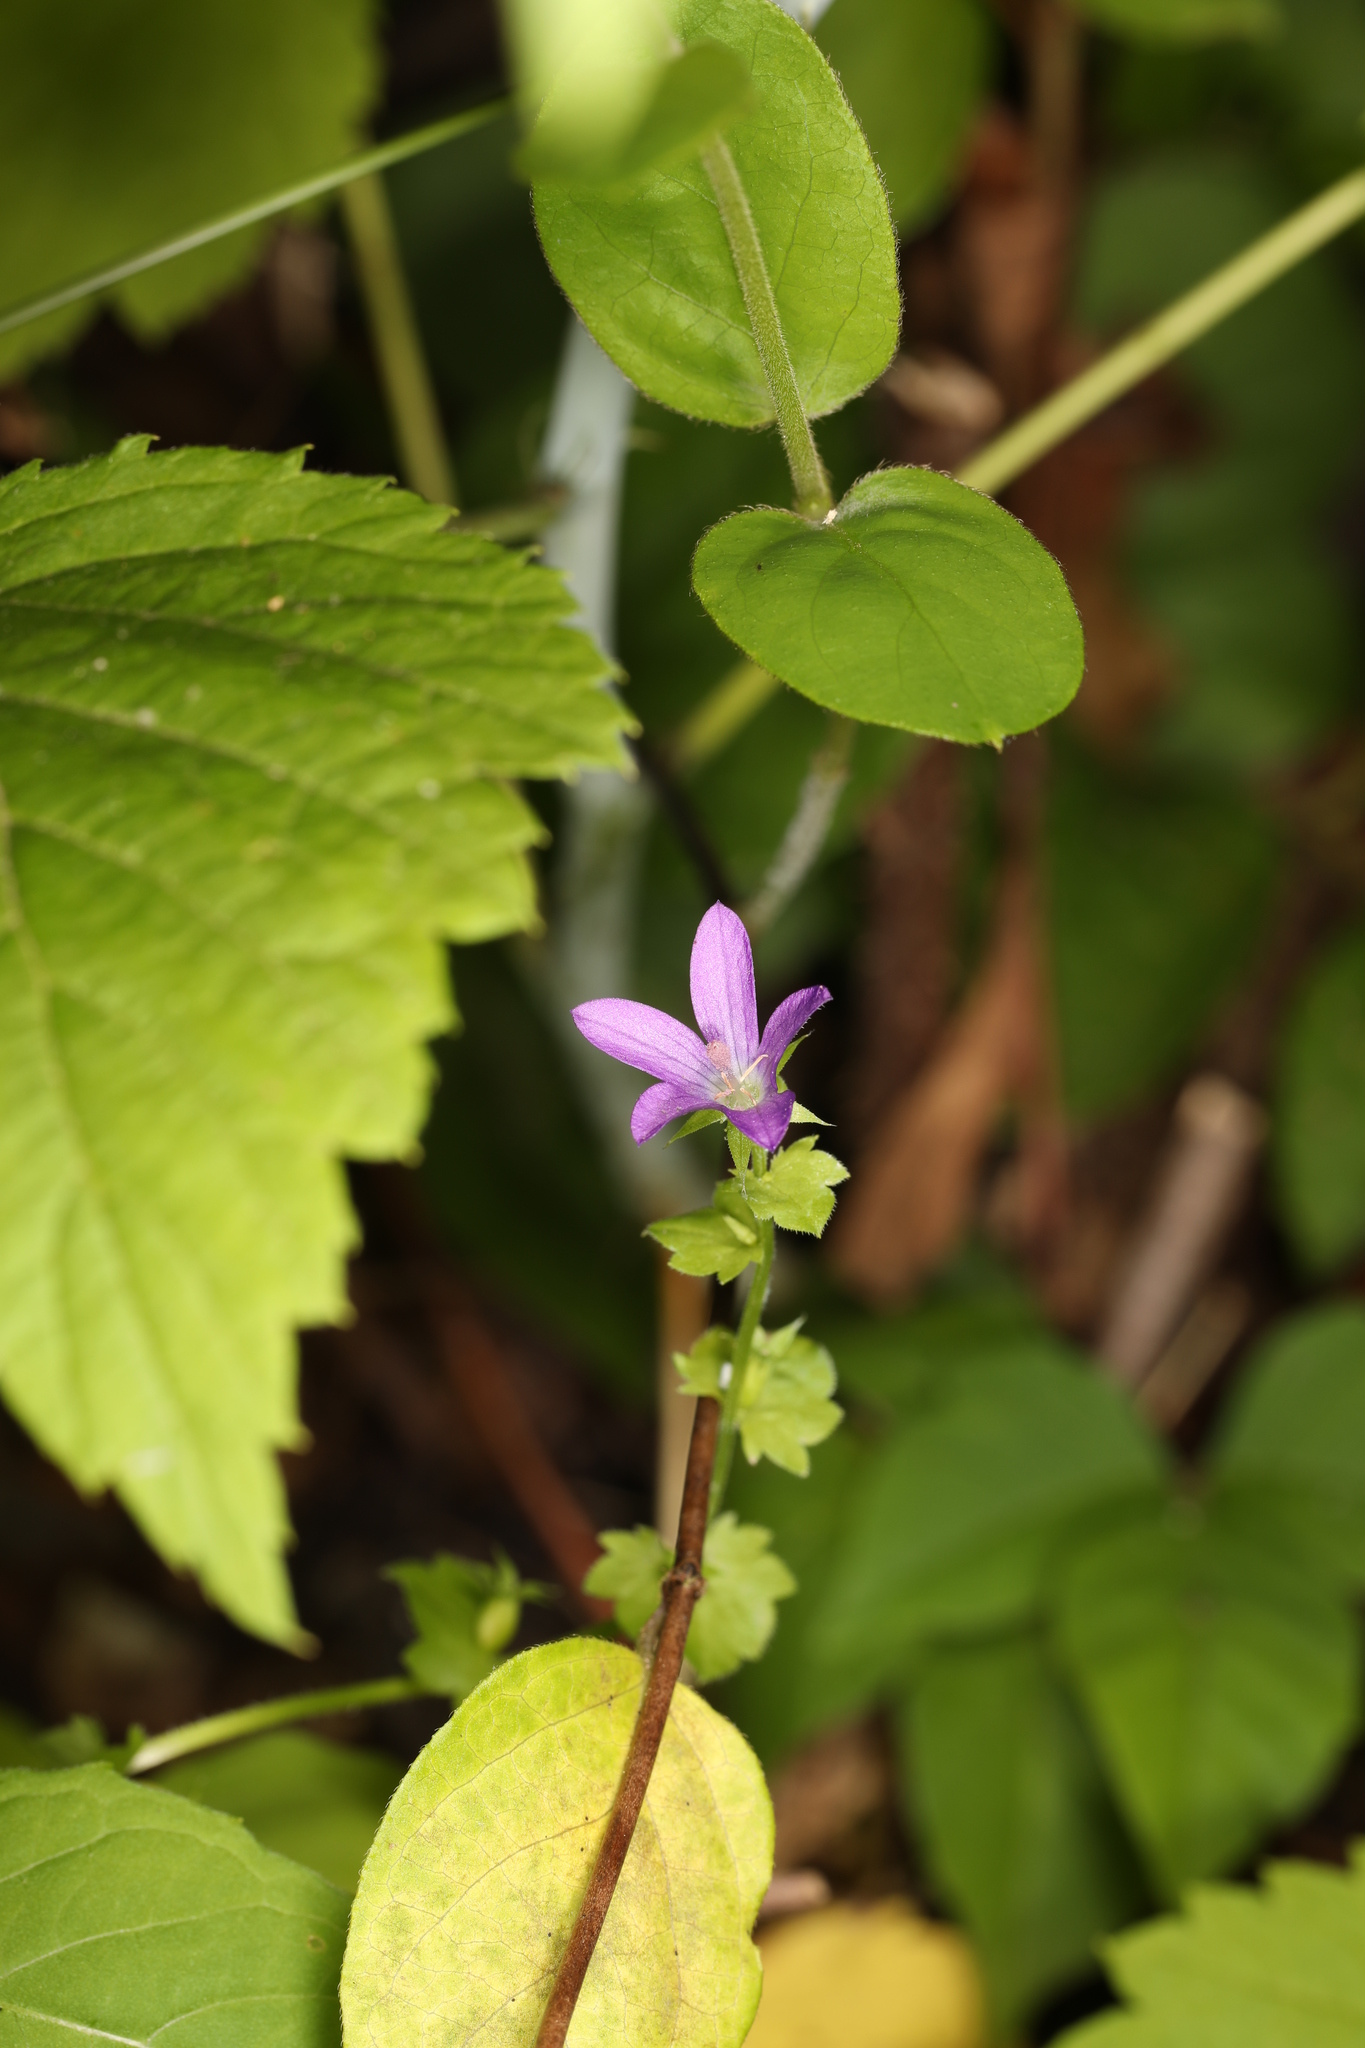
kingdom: Plantae
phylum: Tracheophyta
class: Magnoliopsida
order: Asterales
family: Campanulaceae
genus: Triodanis
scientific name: Triodanis perfoliata
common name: Clasping venus' looking-glass
